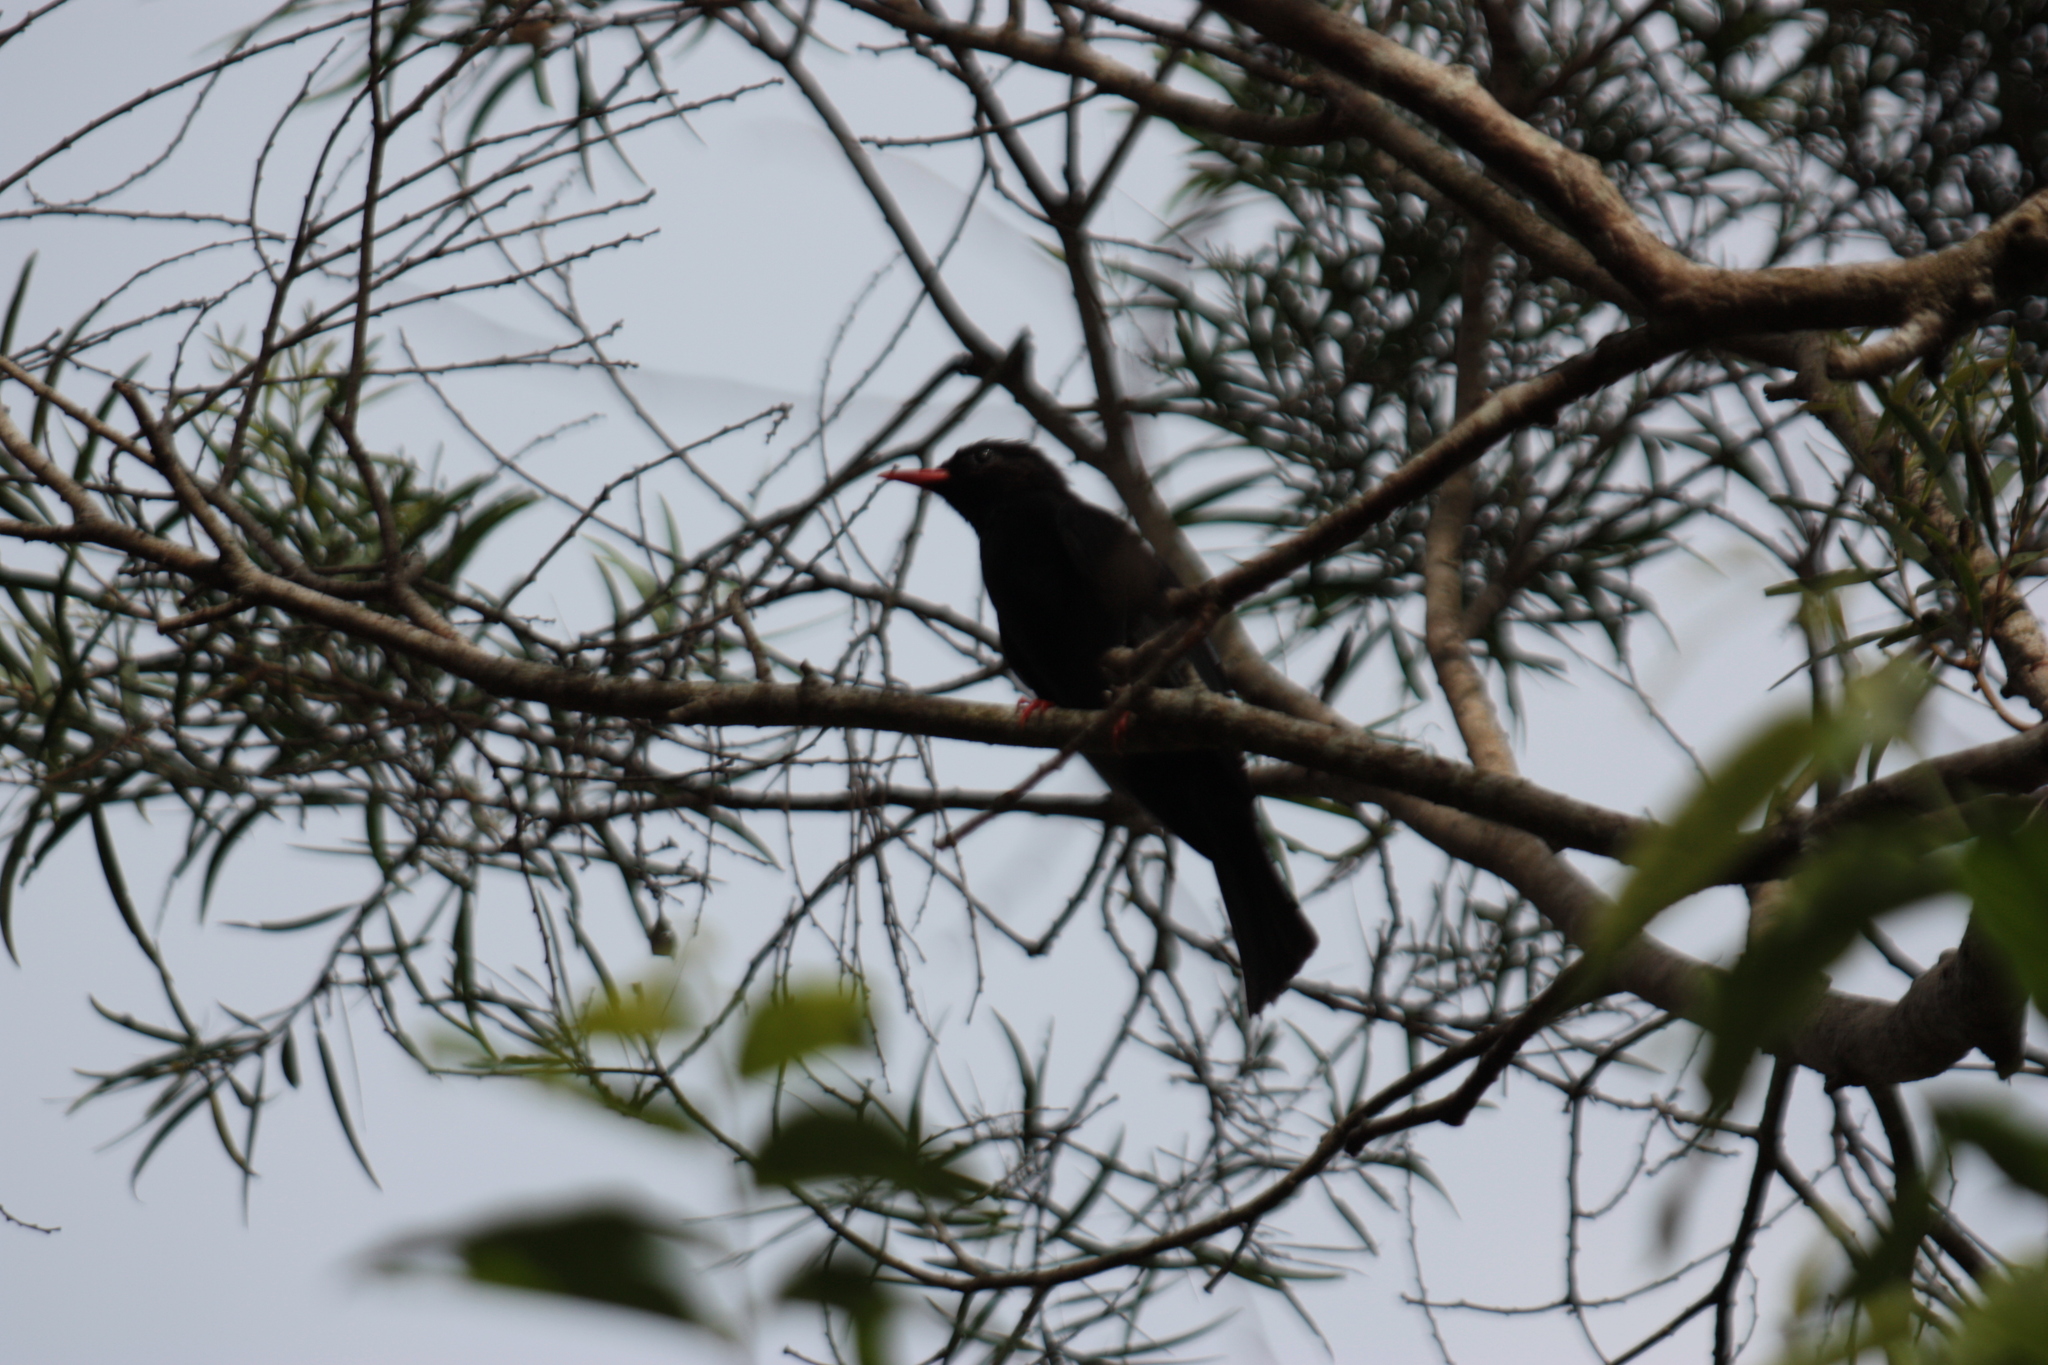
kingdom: Animalia
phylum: Chordata
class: Aves
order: Passeriformes
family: Pycnonotidae
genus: Hypsipetes
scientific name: Hypsipetes leucocephalus
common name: Black bulbul
